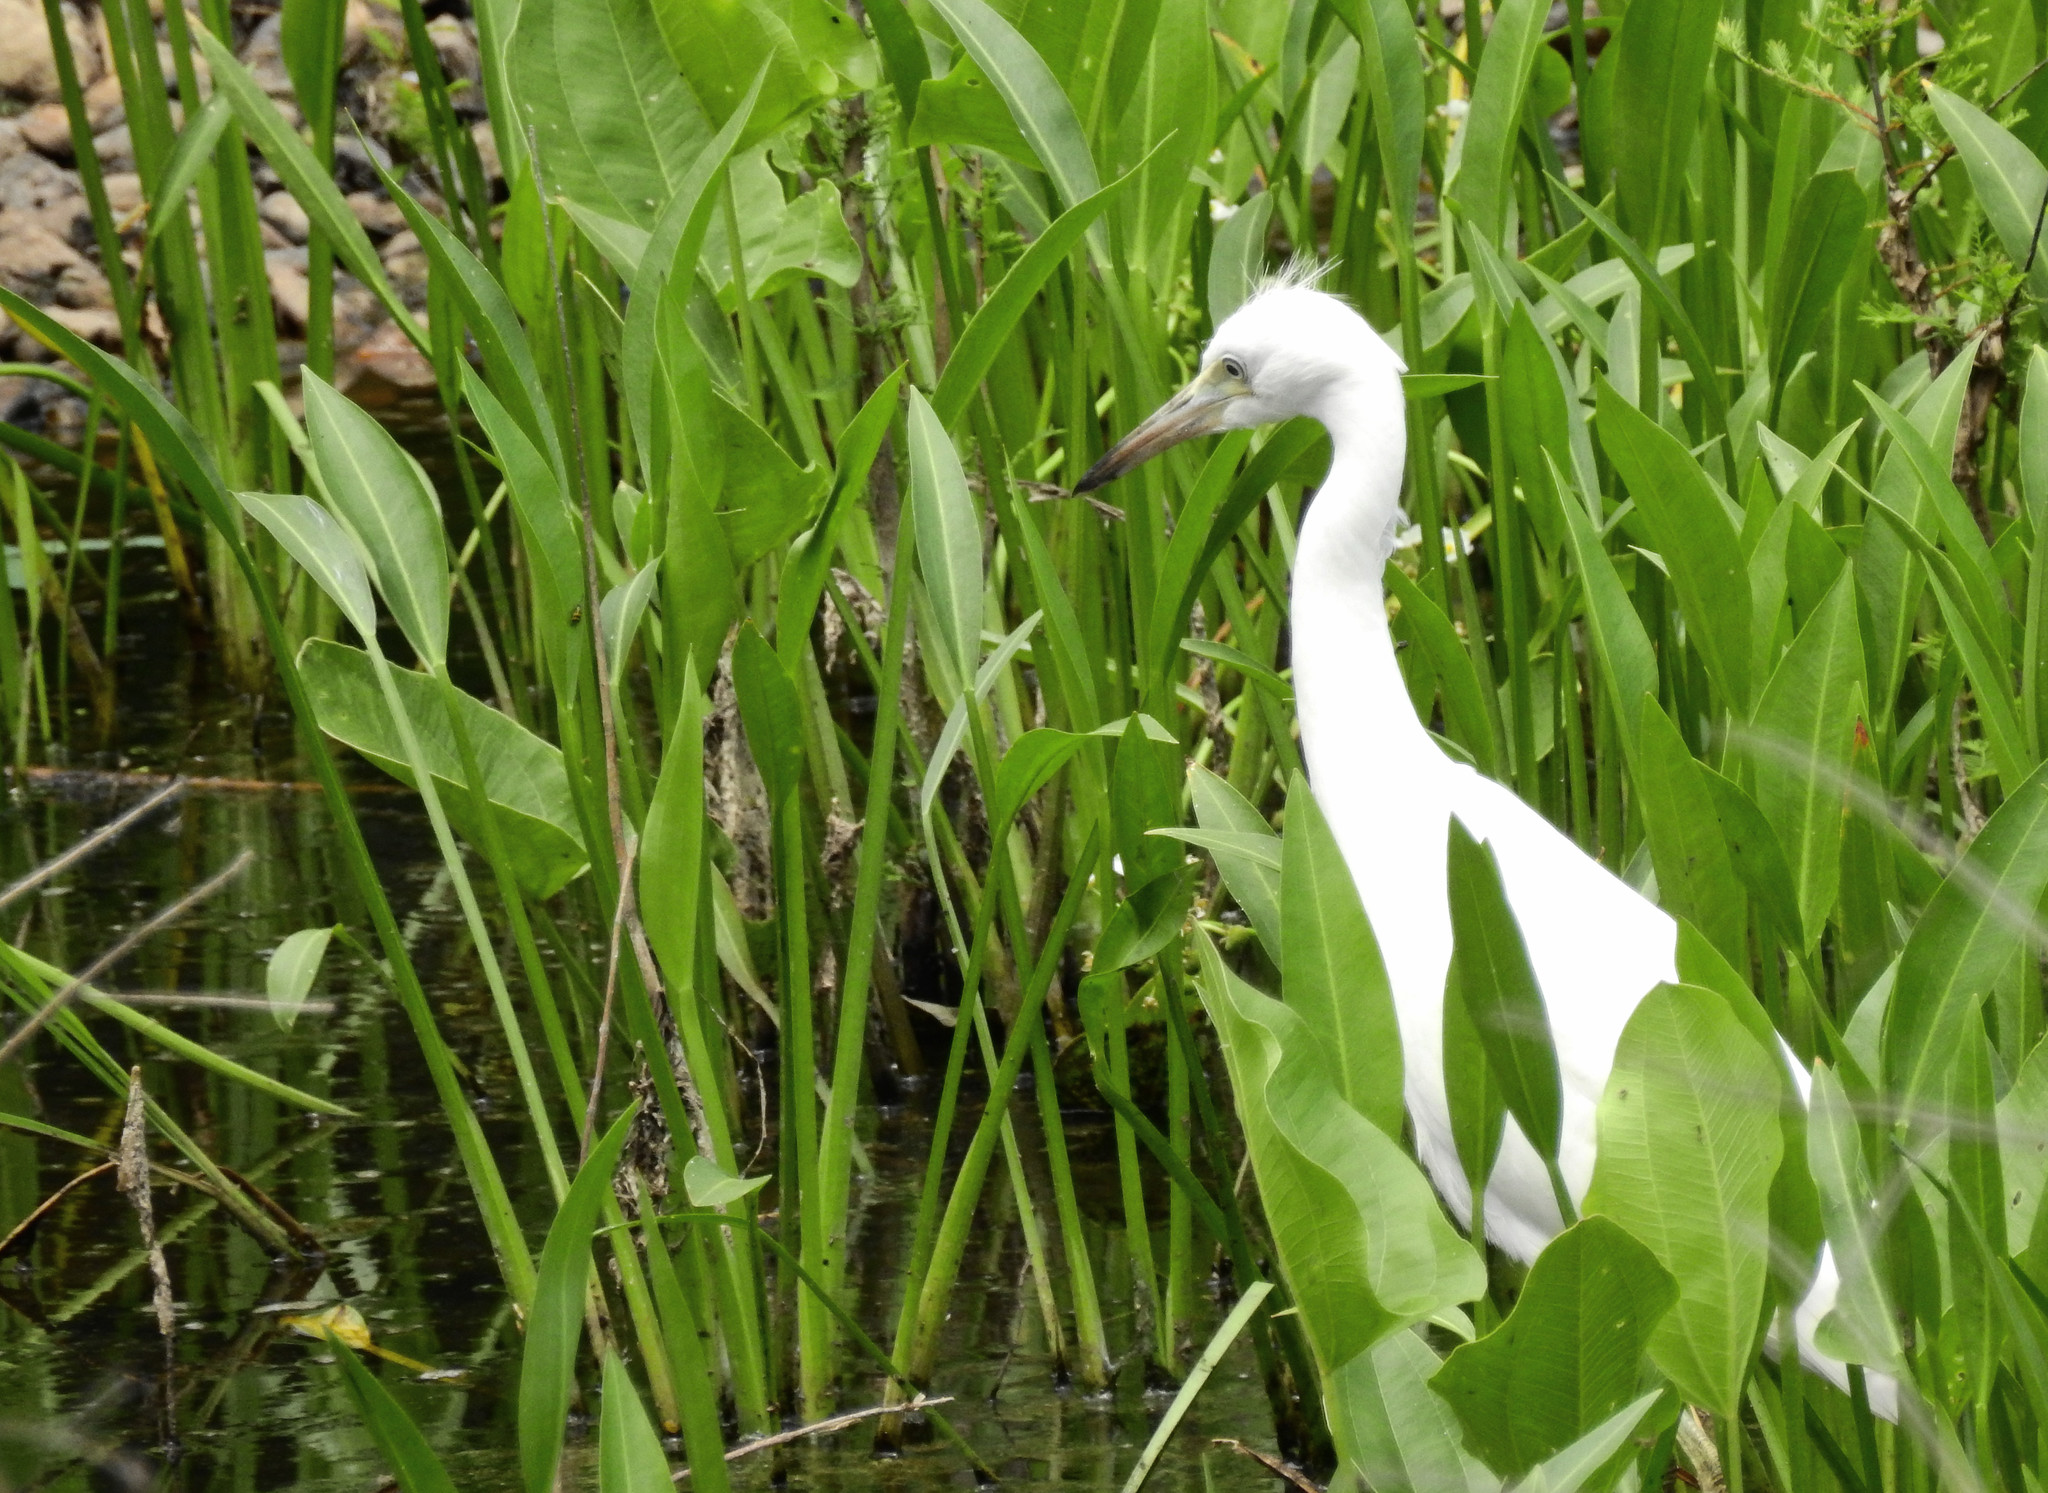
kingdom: Animalia
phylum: Chordata
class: Aves
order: Pelecaniformes
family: Ardeidae
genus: Egretta
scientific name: Egretta caerulea
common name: Little blue heron
